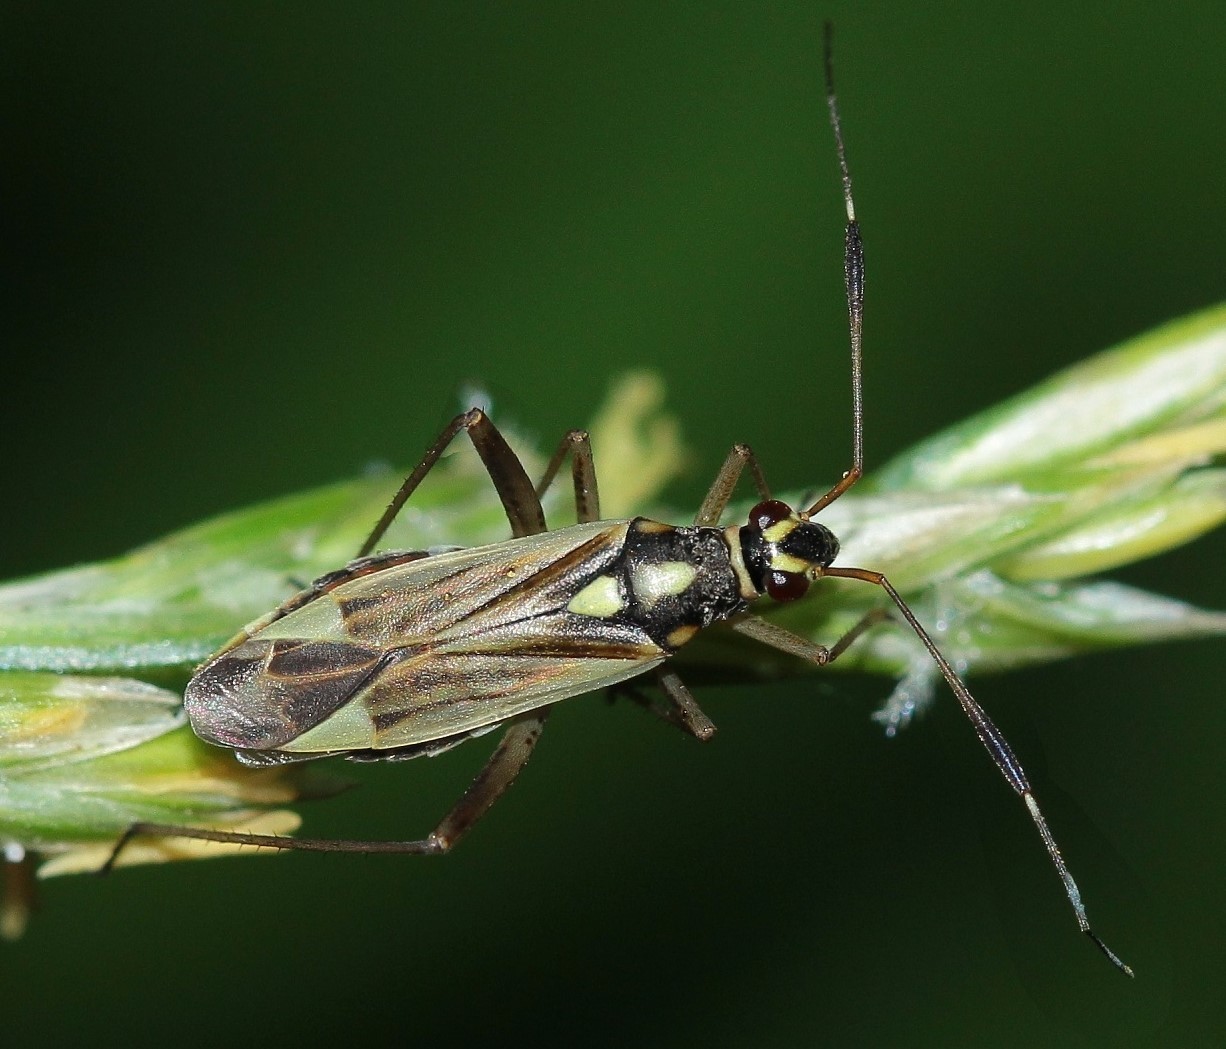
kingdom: Animalia
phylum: Arthropoda
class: Insecta
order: Hemiptera
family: Miridae
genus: Epimecellus
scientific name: Epimecellus cyllocoroides
